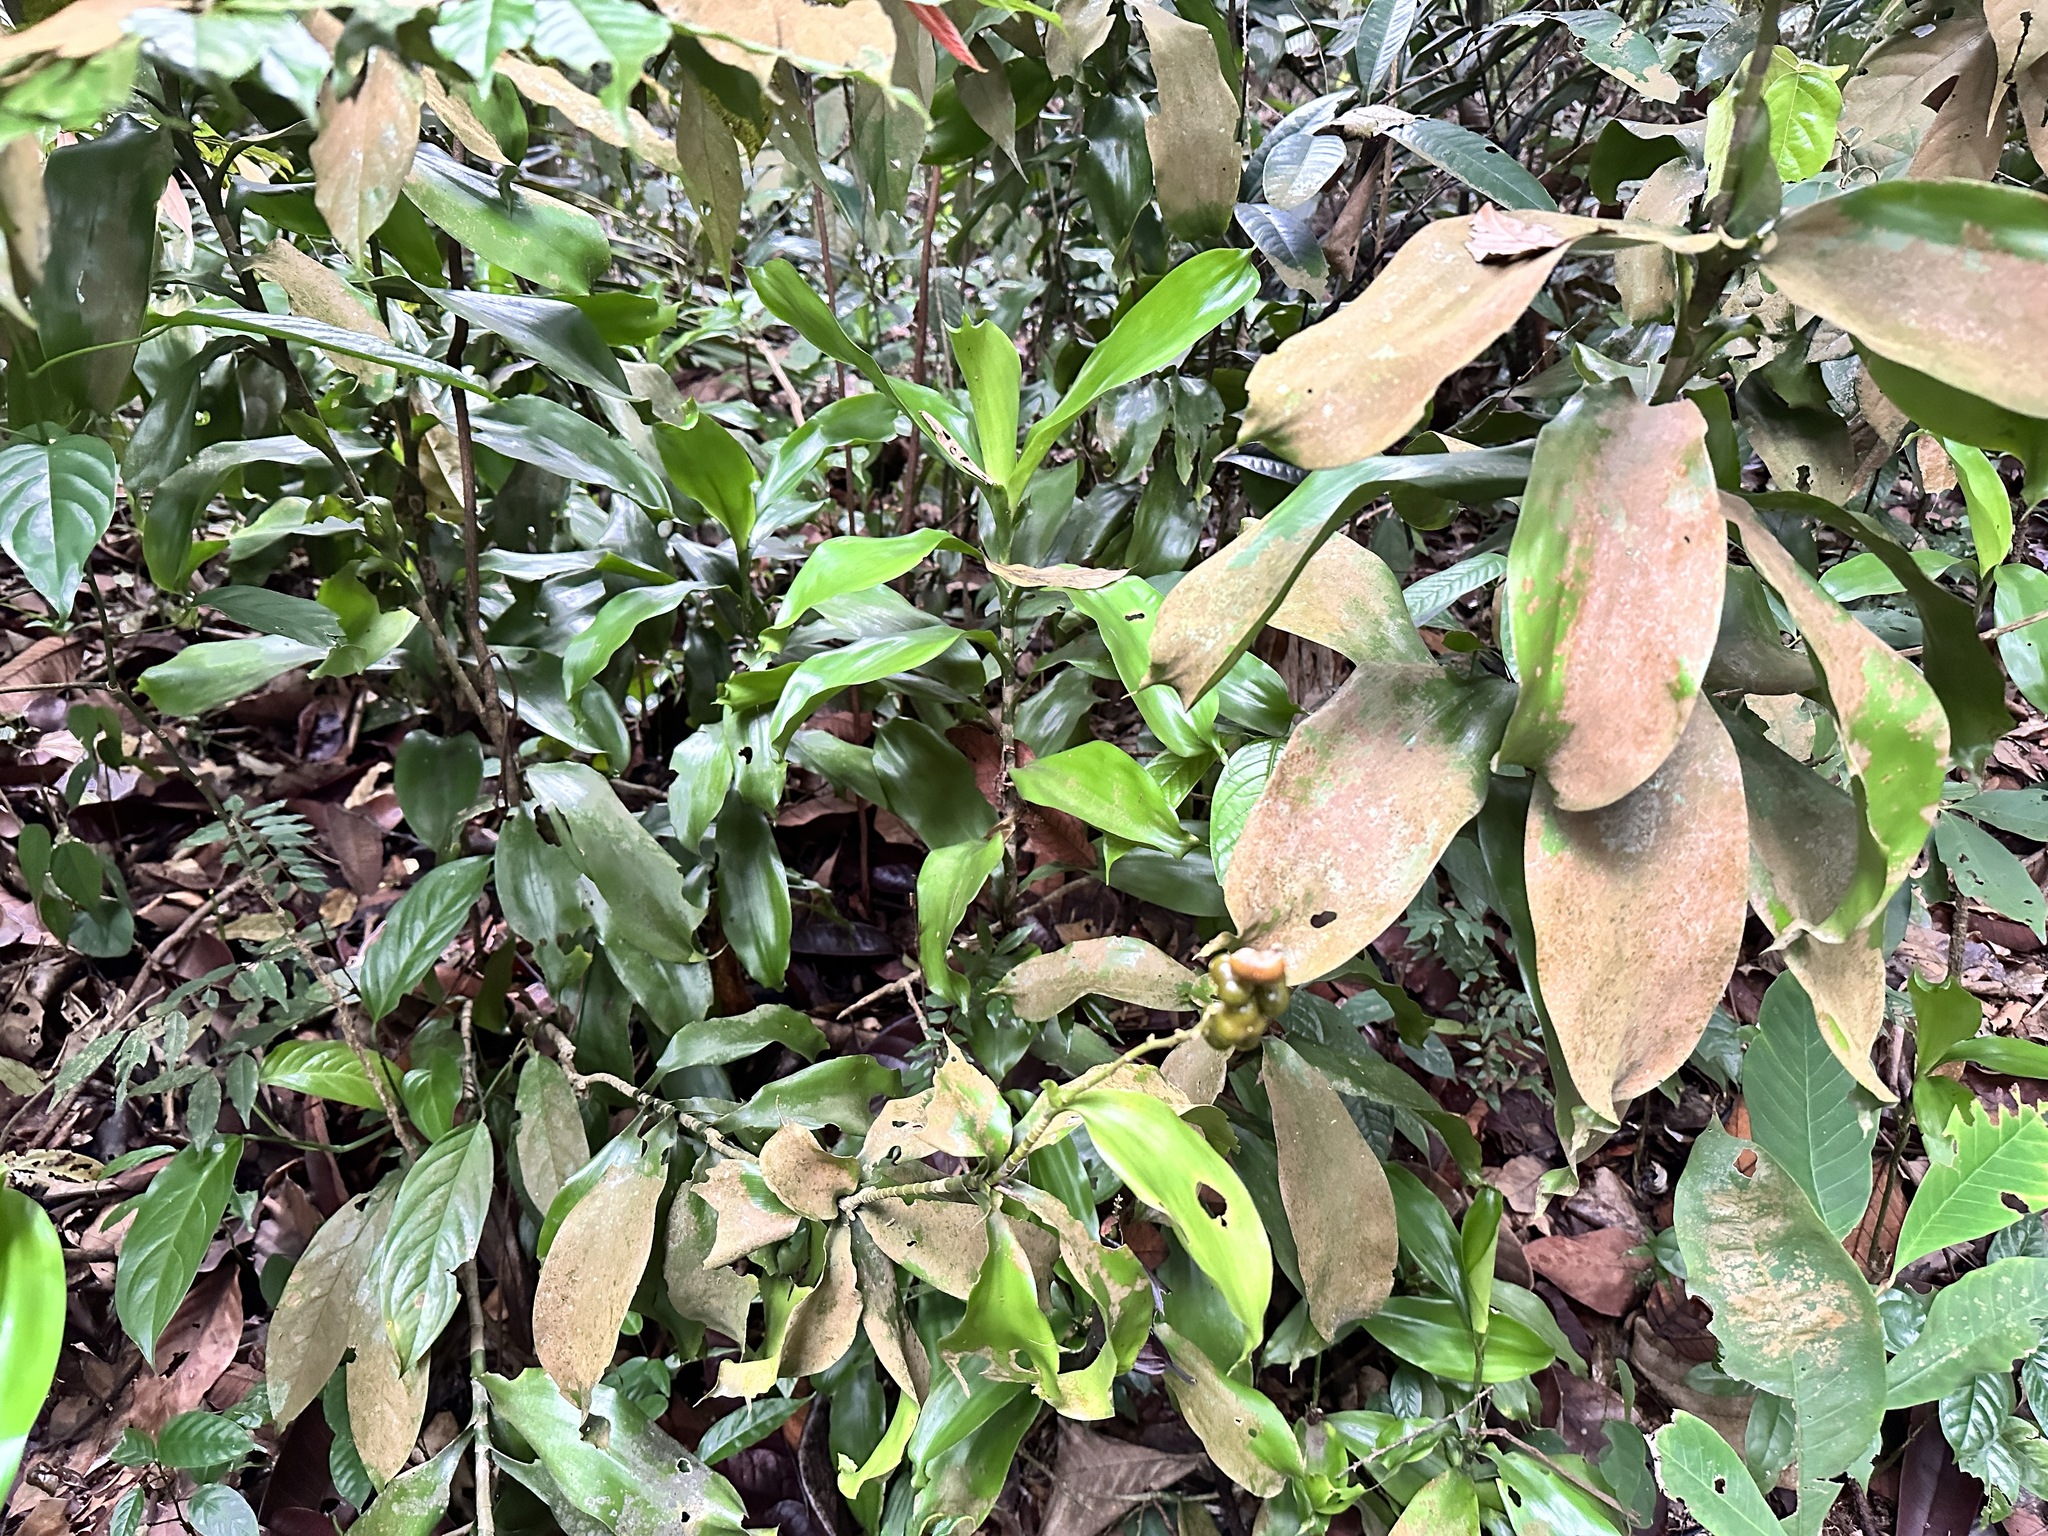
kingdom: Plantae
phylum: Tracheophyta
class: Liliopsida
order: Asparagales
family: Asparagaceae
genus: Dracaena
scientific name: Dracaena porteri
